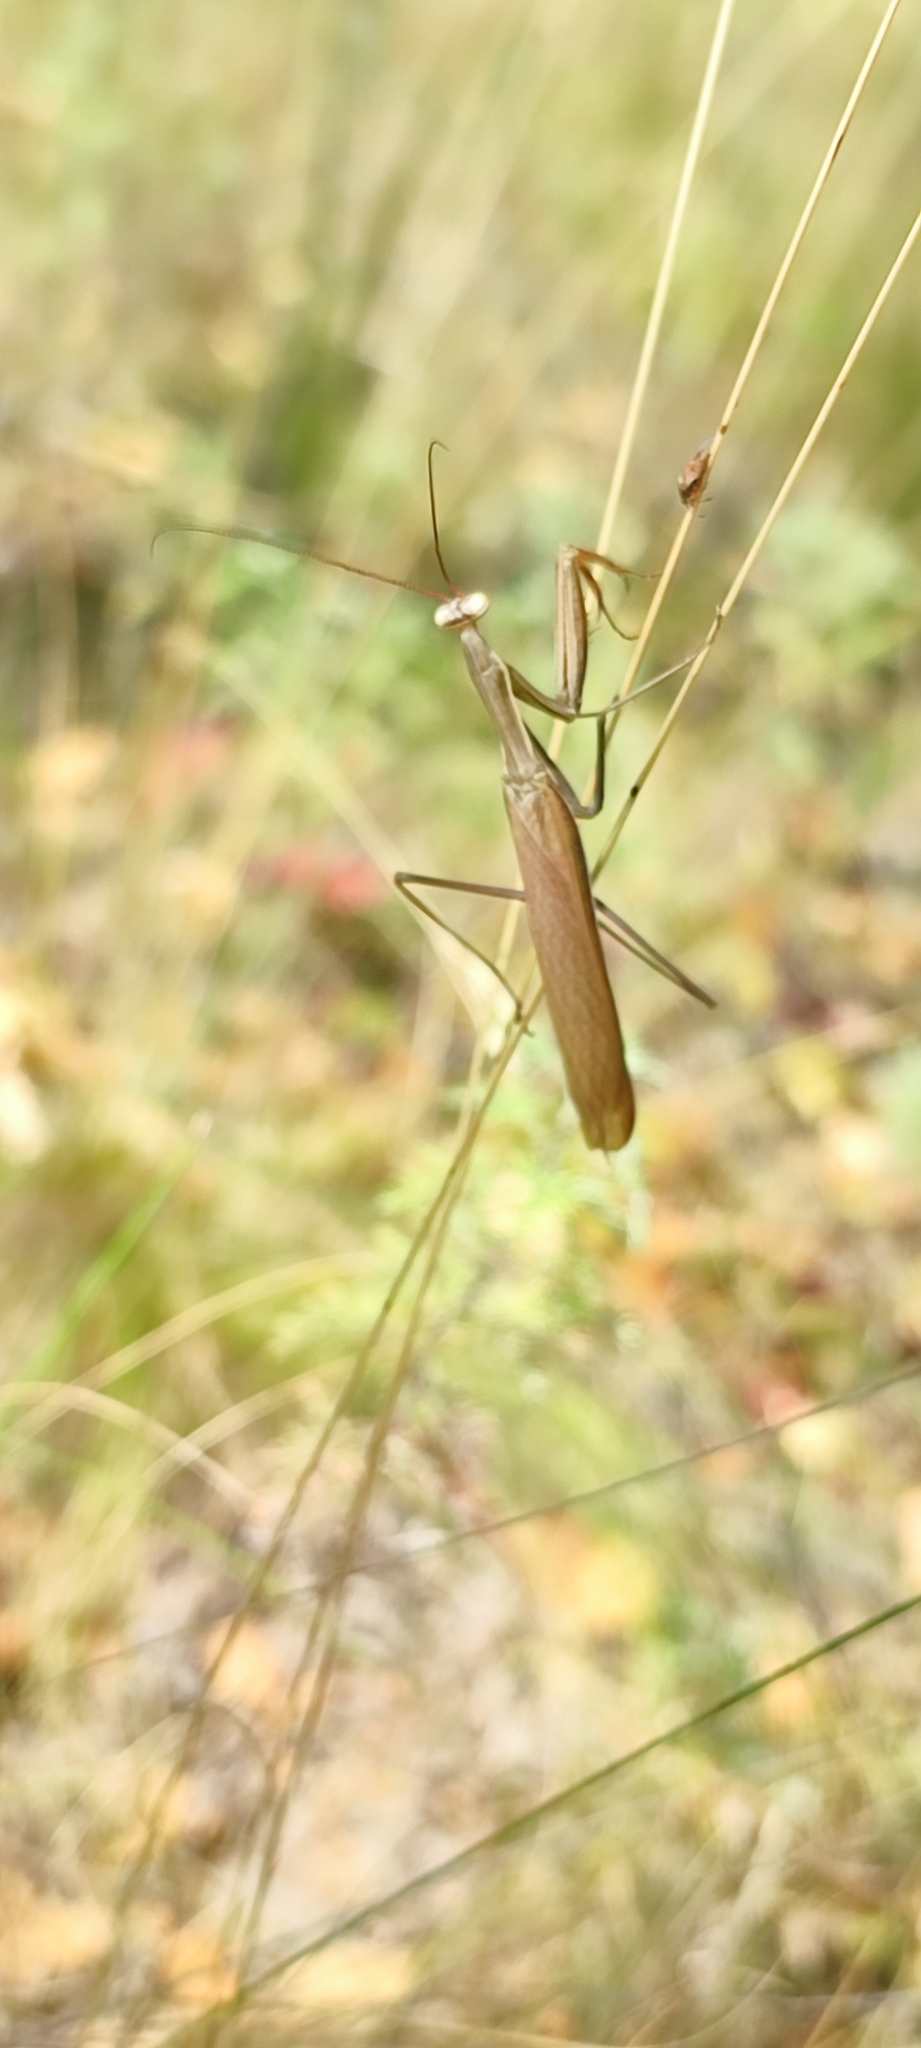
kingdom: Animalia
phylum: Arthropoda
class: Insecta
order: Mantodea
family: Mantidae
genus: Mantis
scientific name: Mantis religiosa
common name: Praying mantis
